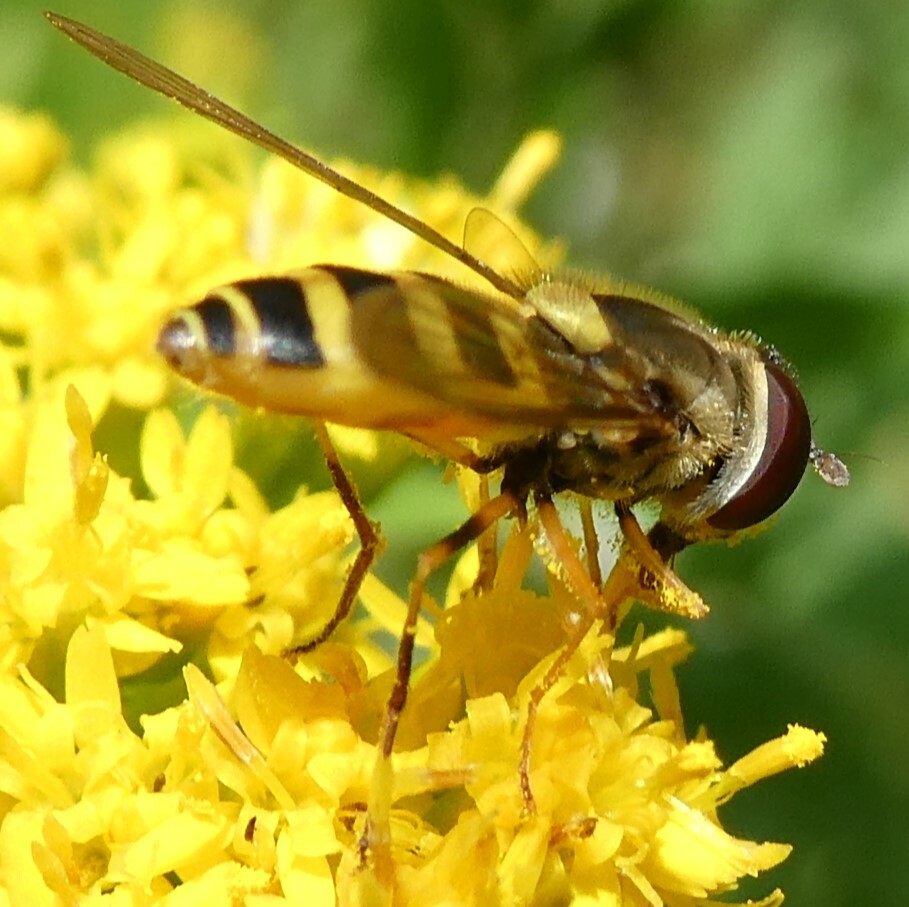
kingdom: Animalia
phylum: Arthropoda
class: Insecta
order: Diptera
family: Syrphidae
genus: Syrphus
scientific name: Syrphus rectus
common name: Yellow-legged flower fly
